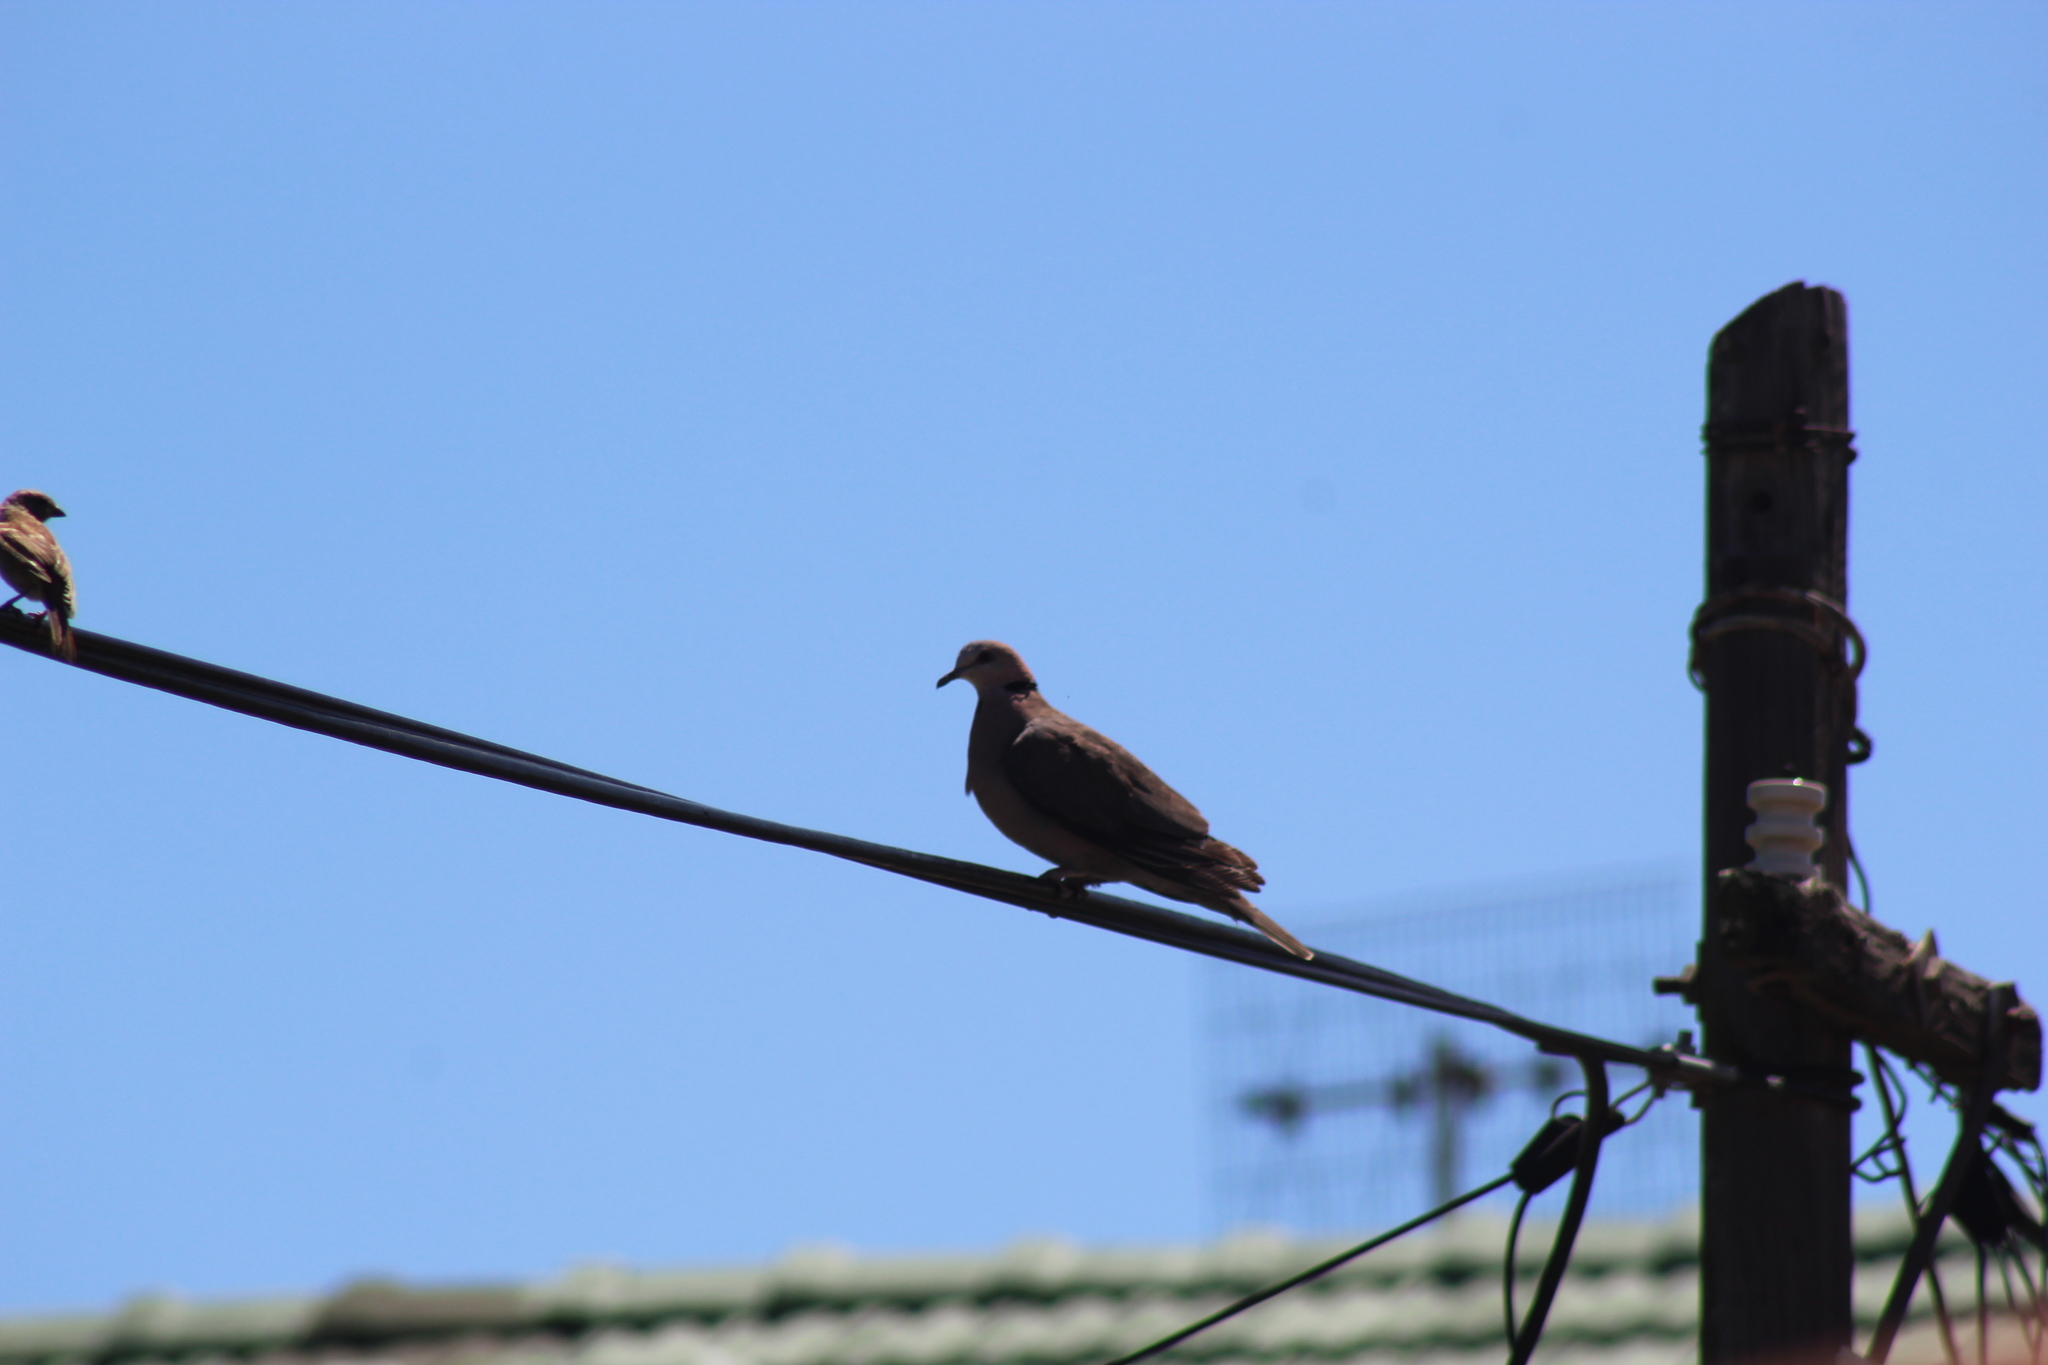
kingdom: Animalia
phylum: Chordata
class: Aves
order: Columbiformes
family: Columbidae
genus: Streptopelia
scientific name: Streptopelia semitorquata
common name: Red-eyed dove
